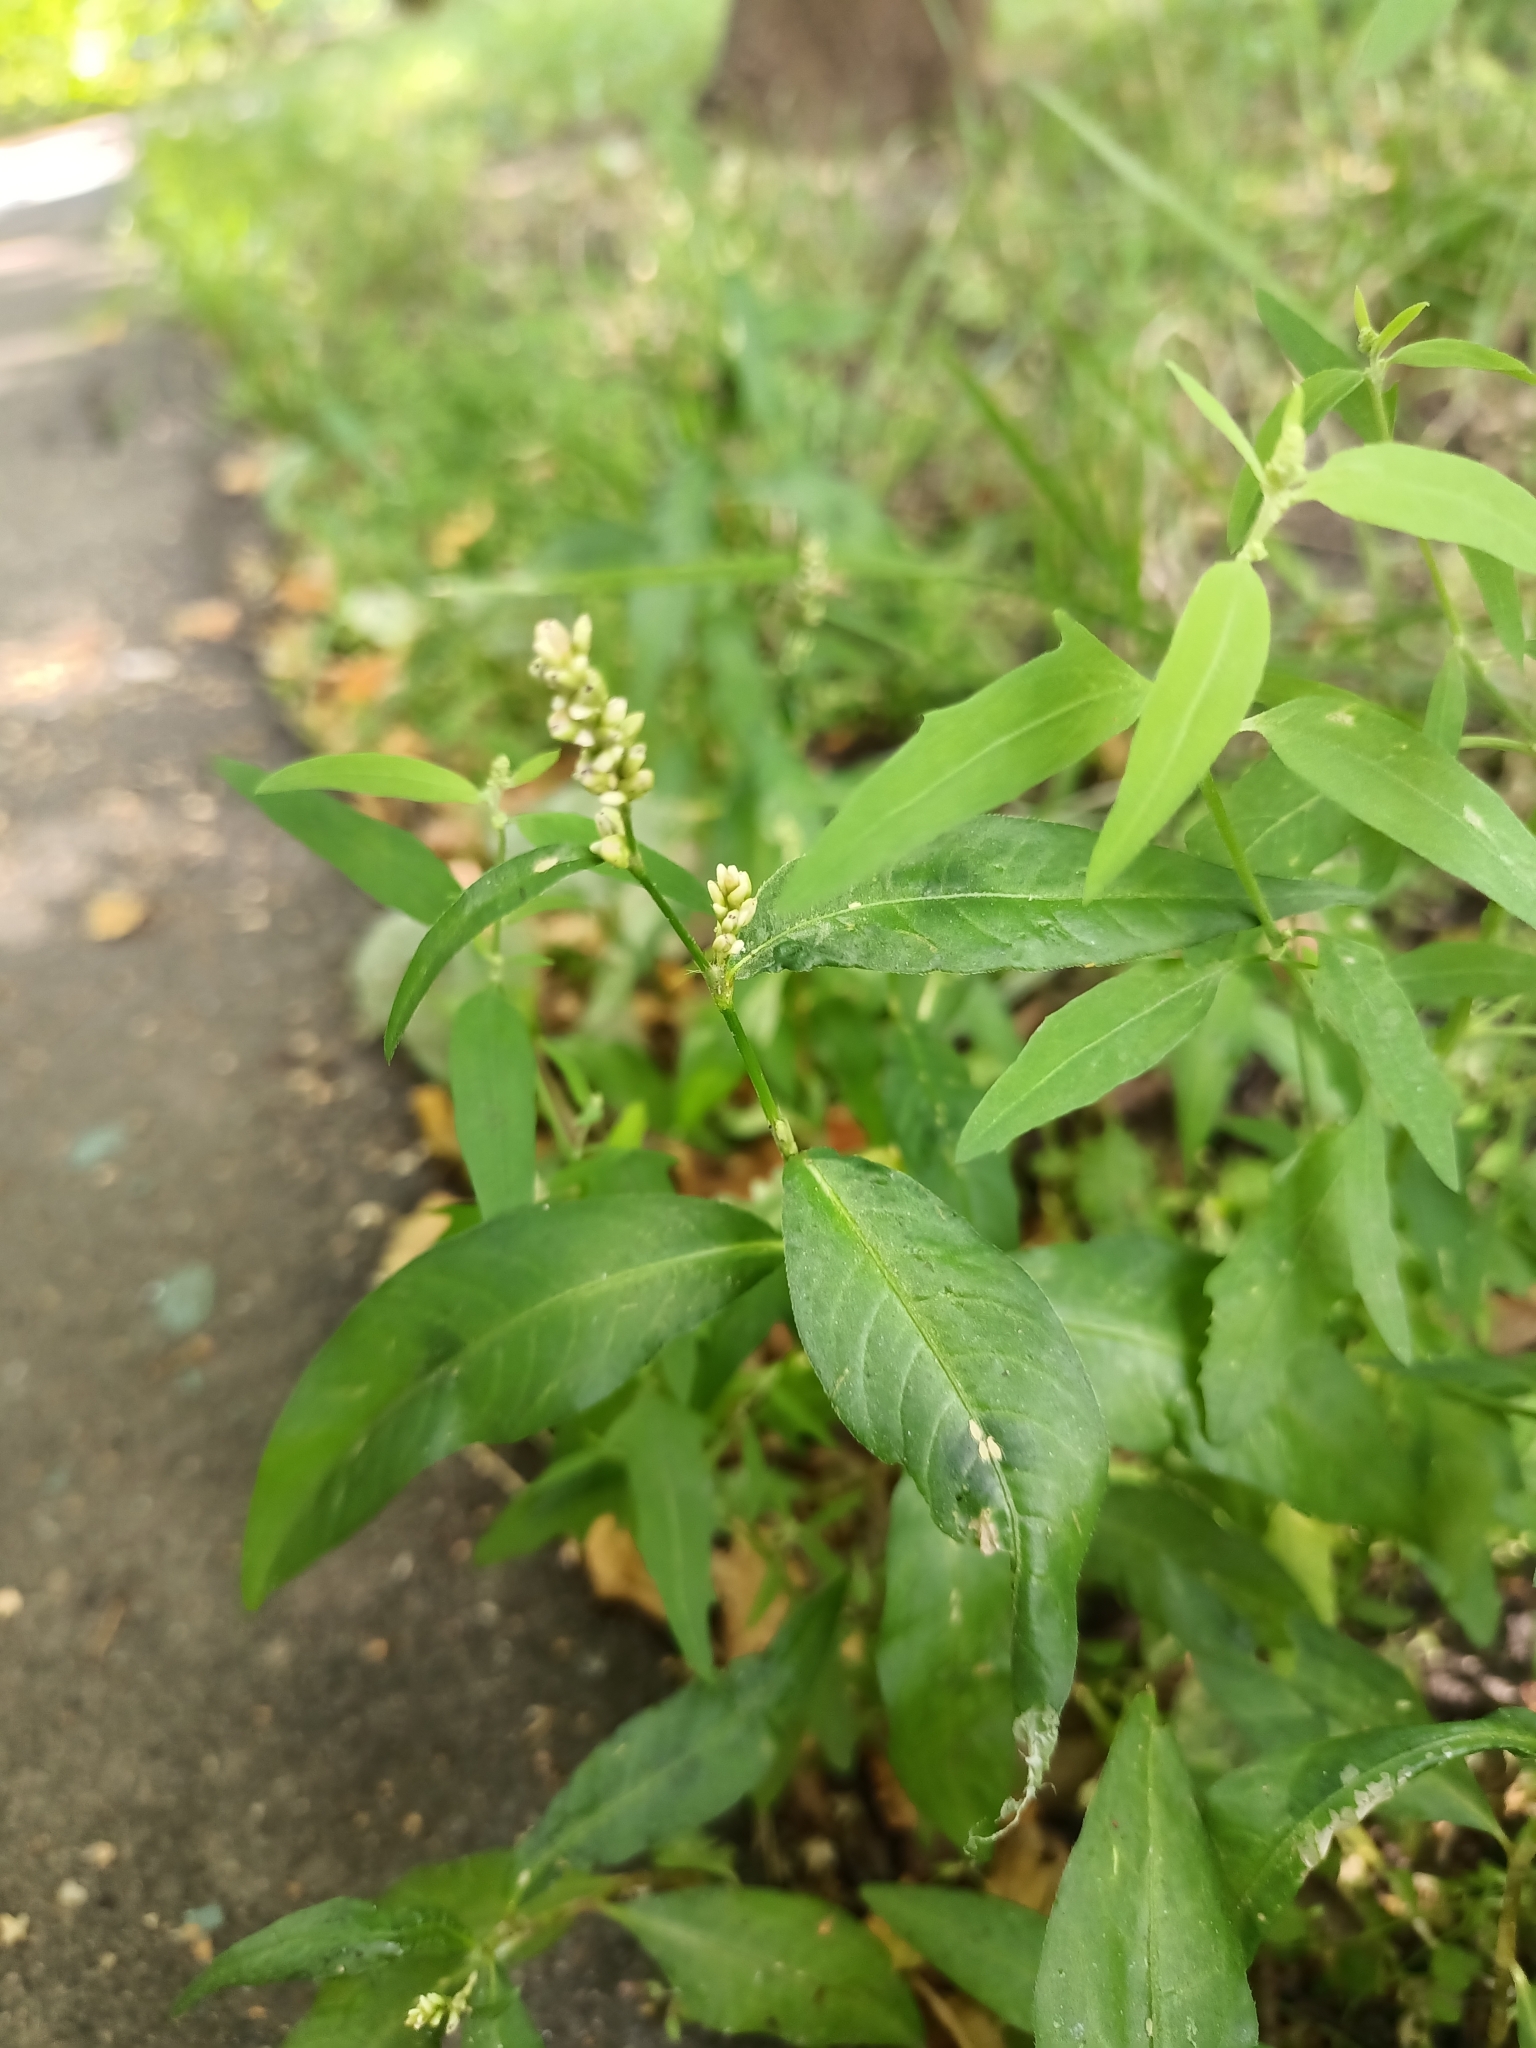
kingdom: Plantae
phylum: Tracheophyta
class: Magnoliopsida
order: Caryophyllales
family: Polygonaceae
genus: Persicaria
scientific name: Persicaria maculosa
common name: Redshank
